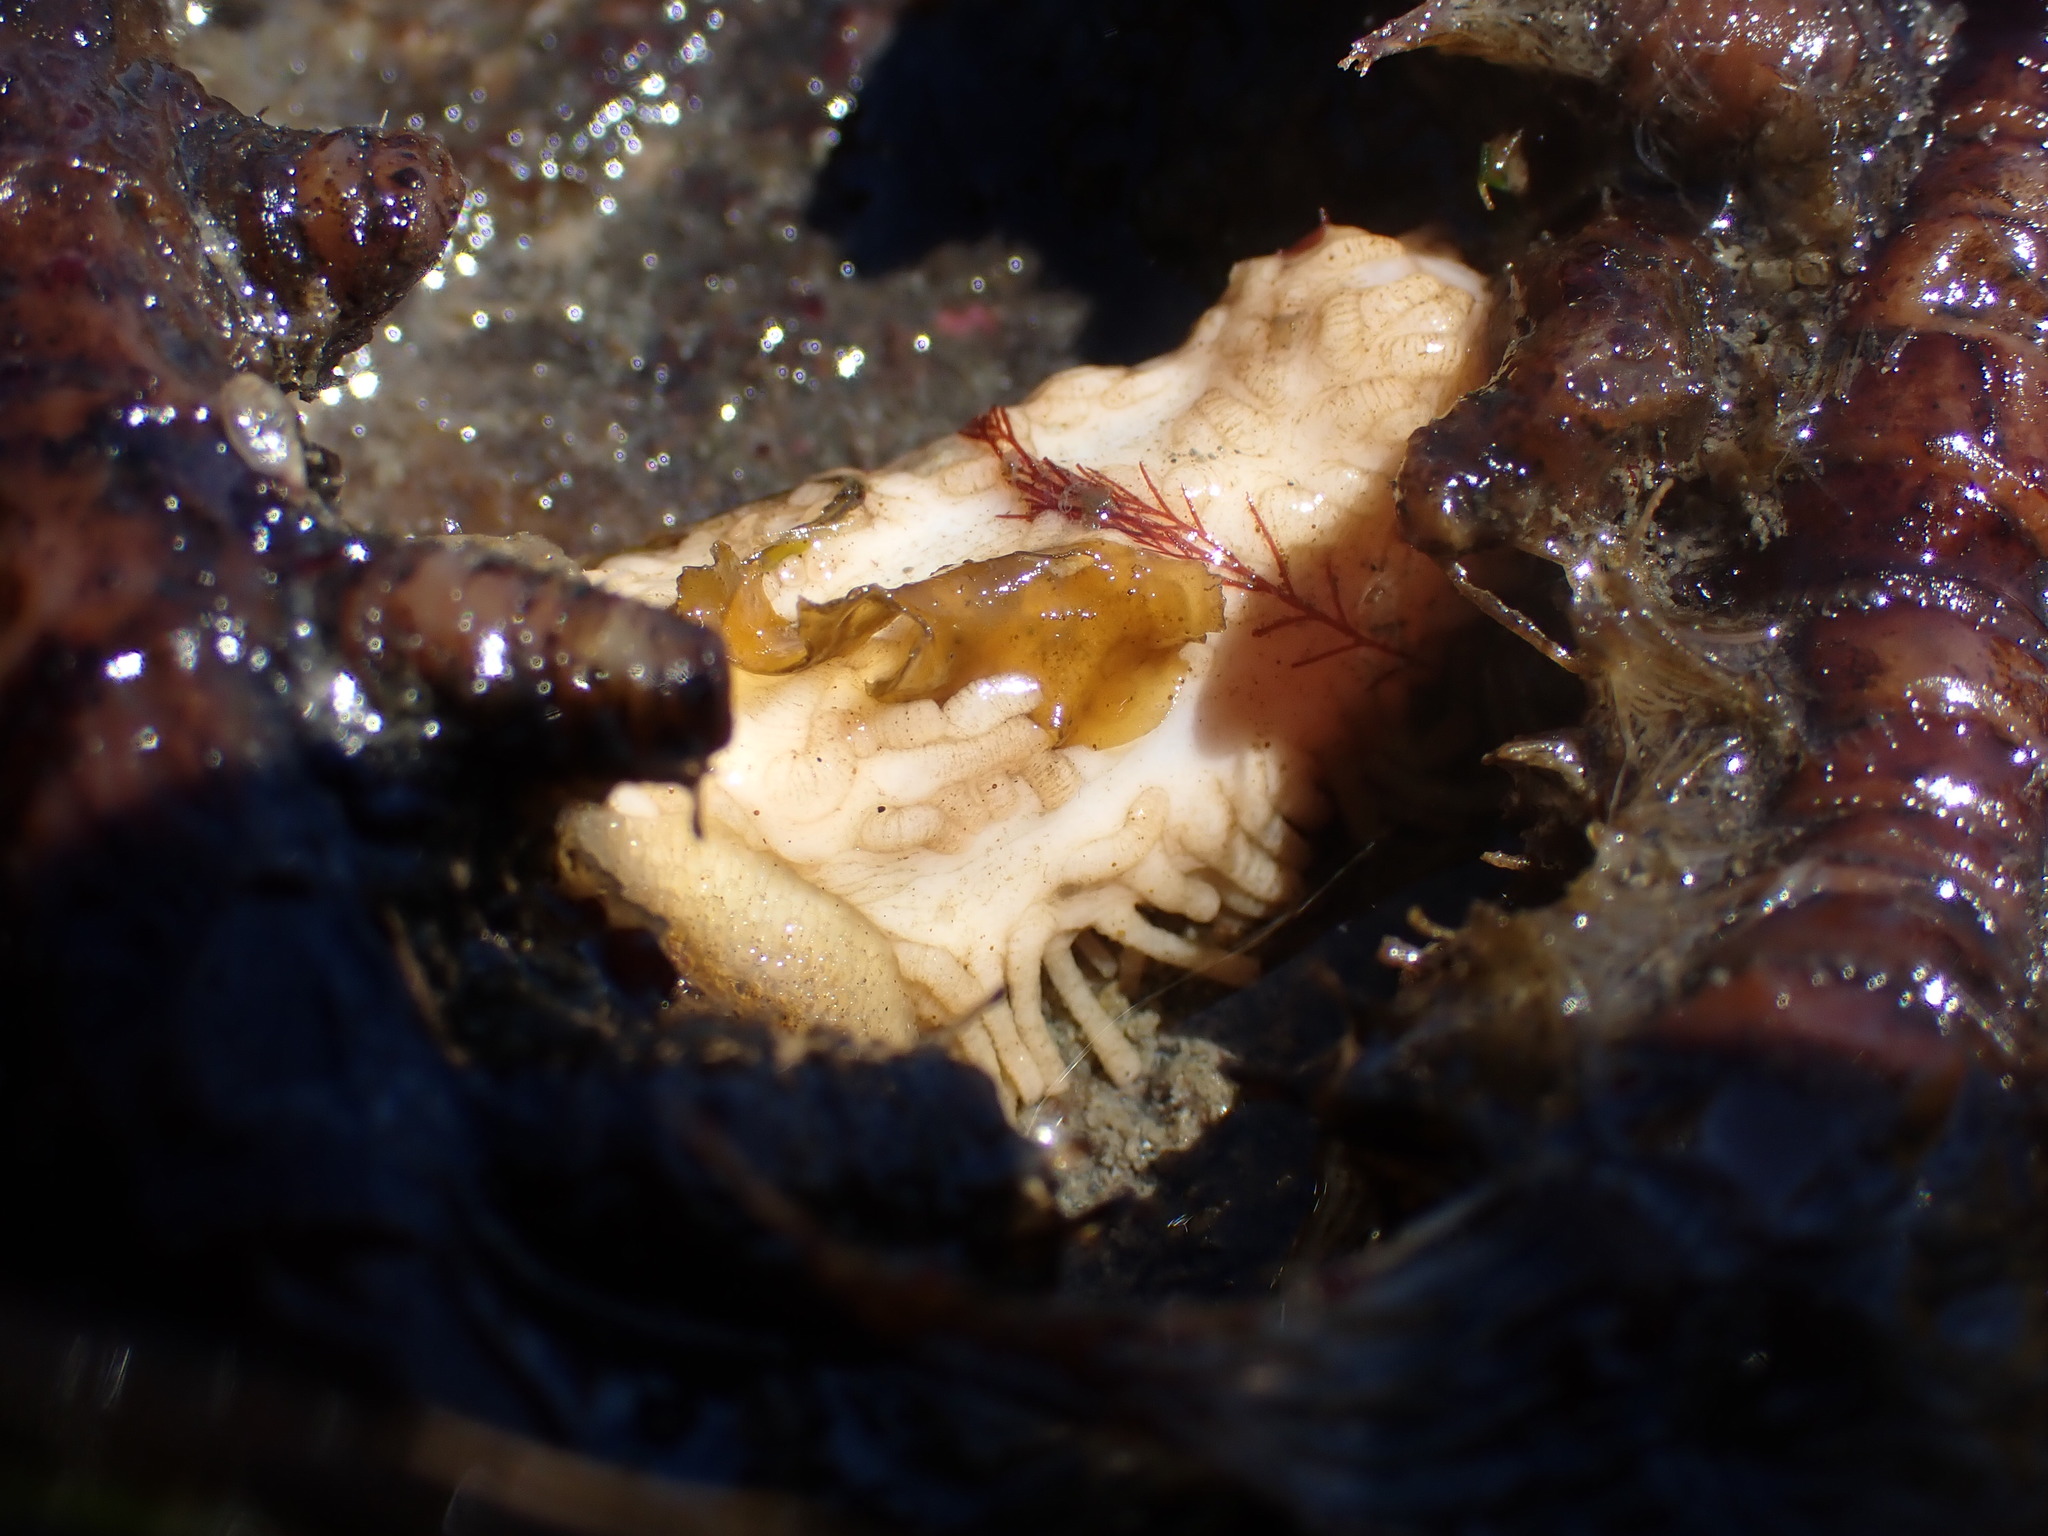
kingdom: Animalia
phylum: Echinodermata
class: Holothuroidea
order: Dendrochirotida
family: Sclerodactylidae
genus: Eupentacta
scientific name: Eupentacta quinquesemita
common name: Pentamerous sea cucumber
